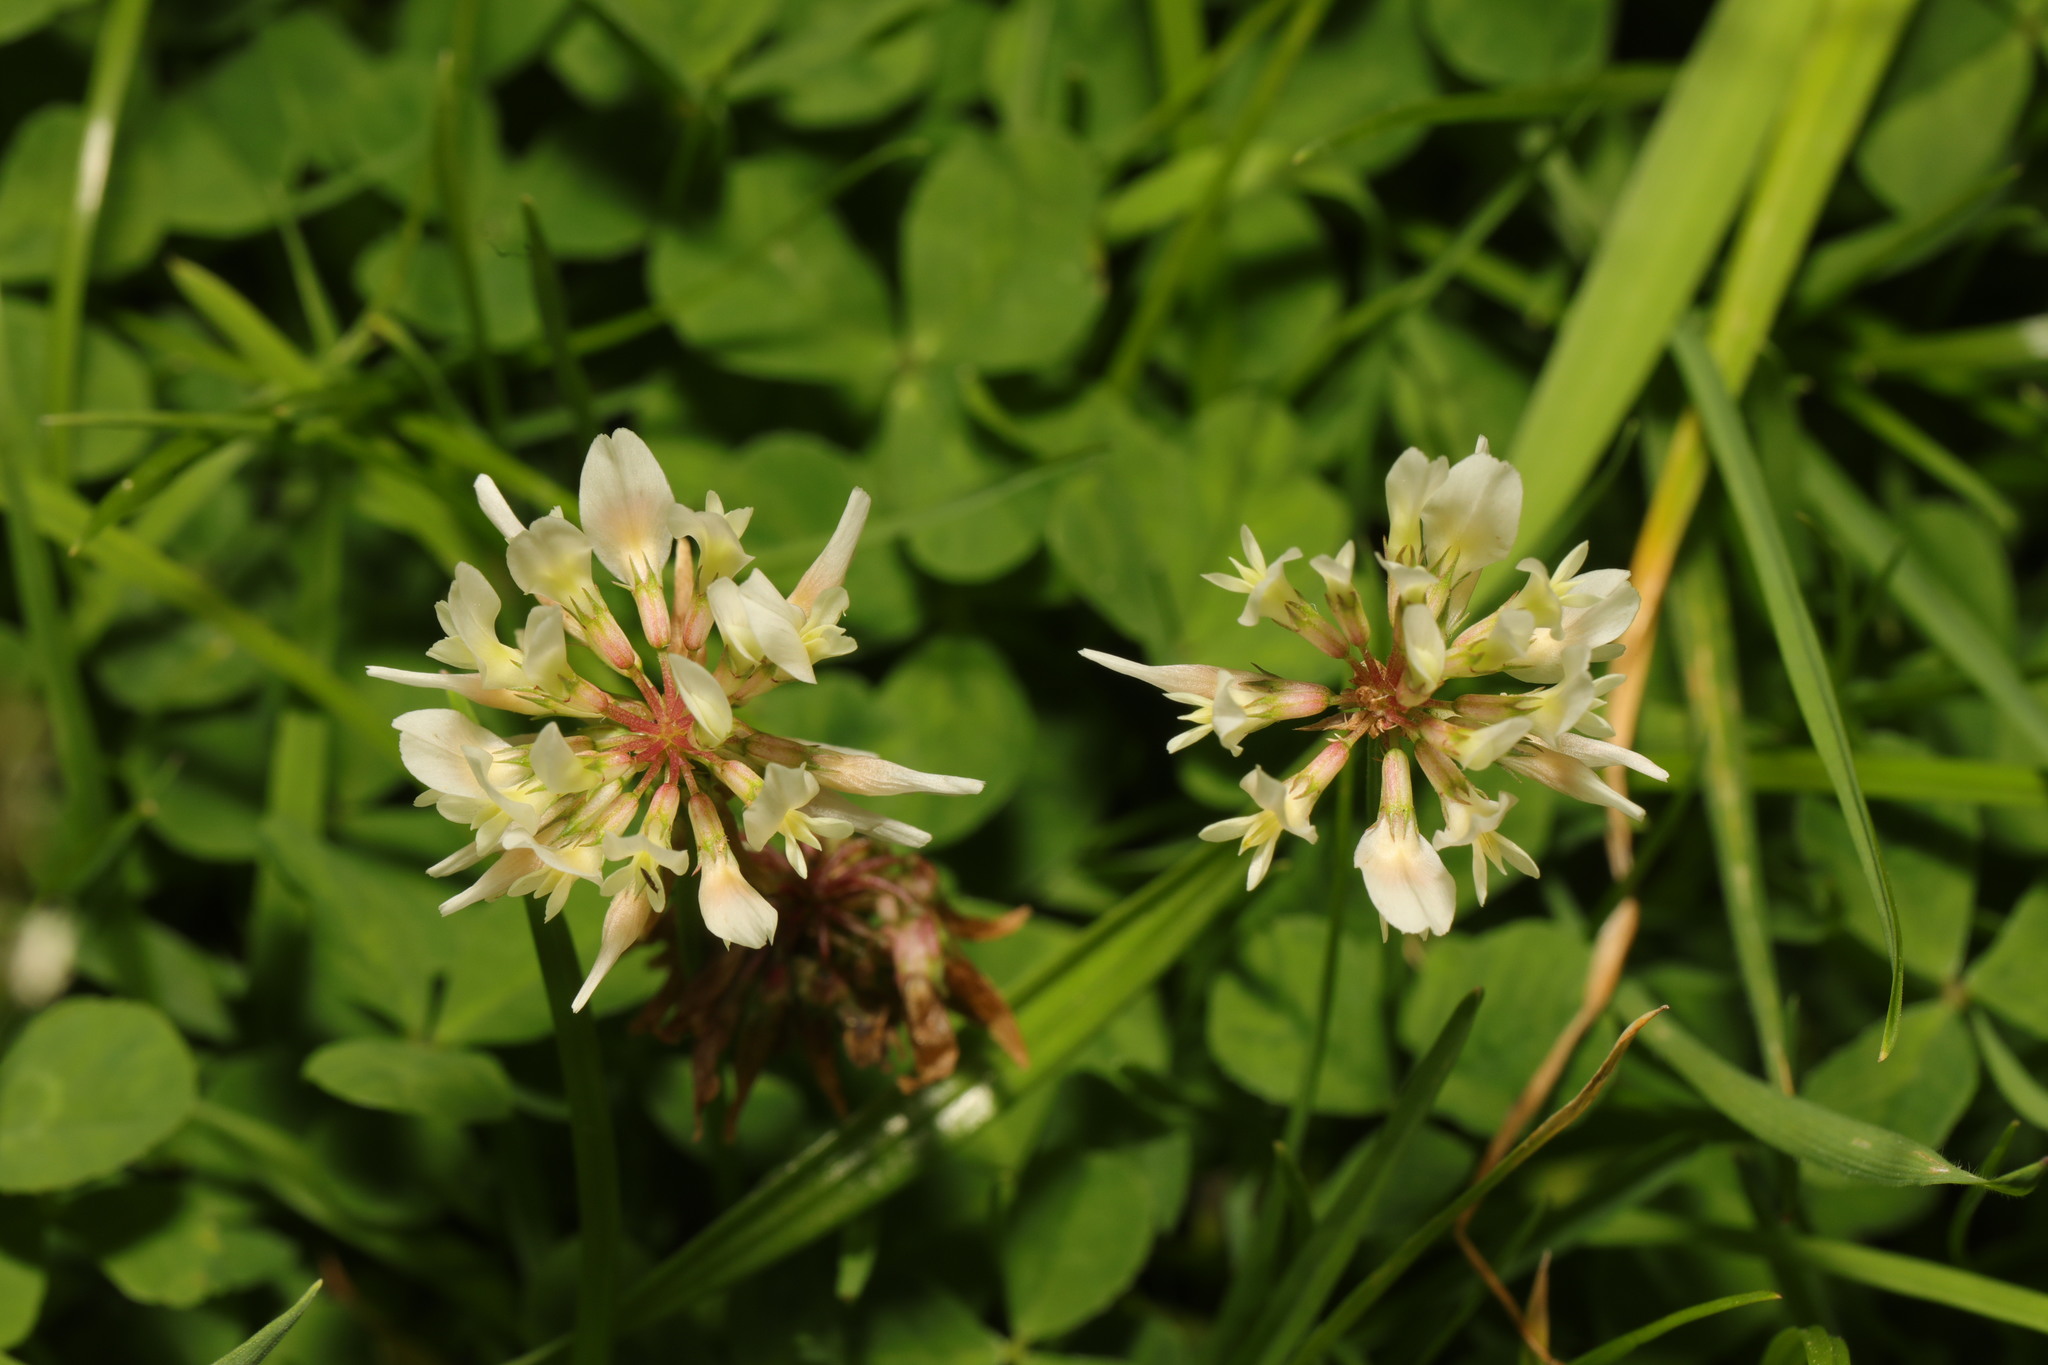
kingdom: Plantae
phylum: Tracheophyta
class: Magnoliopsida
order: Fabales
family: Fabaceae
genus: Trifolium
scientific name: Trifolium repens
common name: White clover
